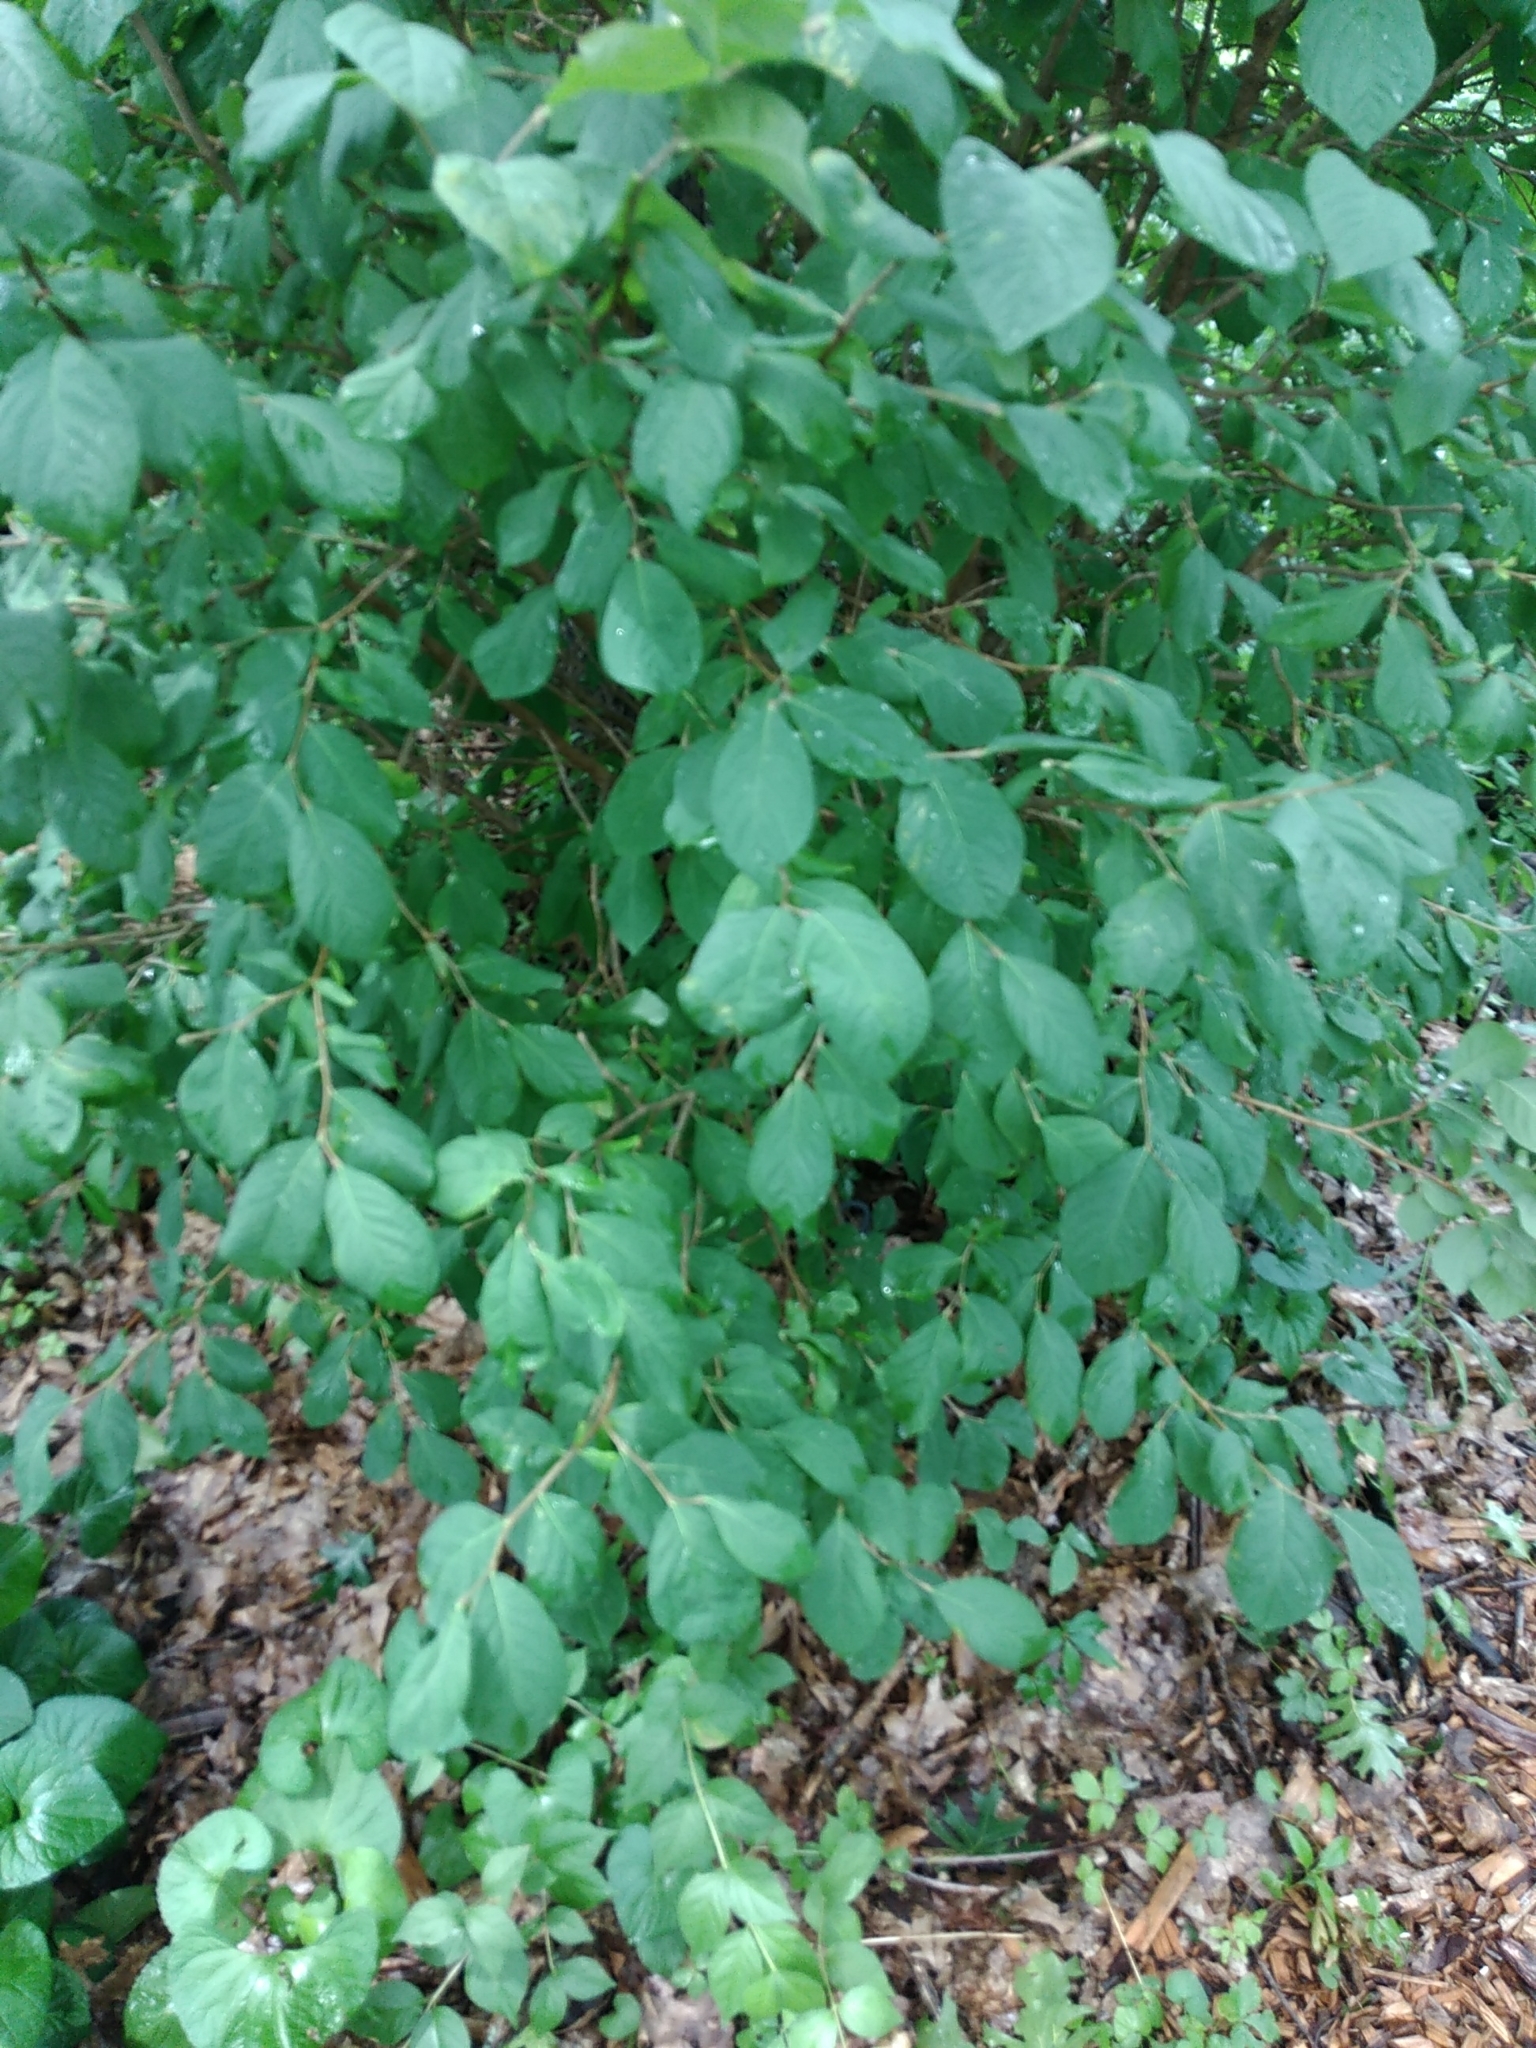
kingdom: Plantae
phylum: Tracheophyta
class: Magnoliopsida
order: Malvales
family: Thymelaeaceae
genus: Dirca
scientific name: Dirca palustris
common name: Leatherwood
